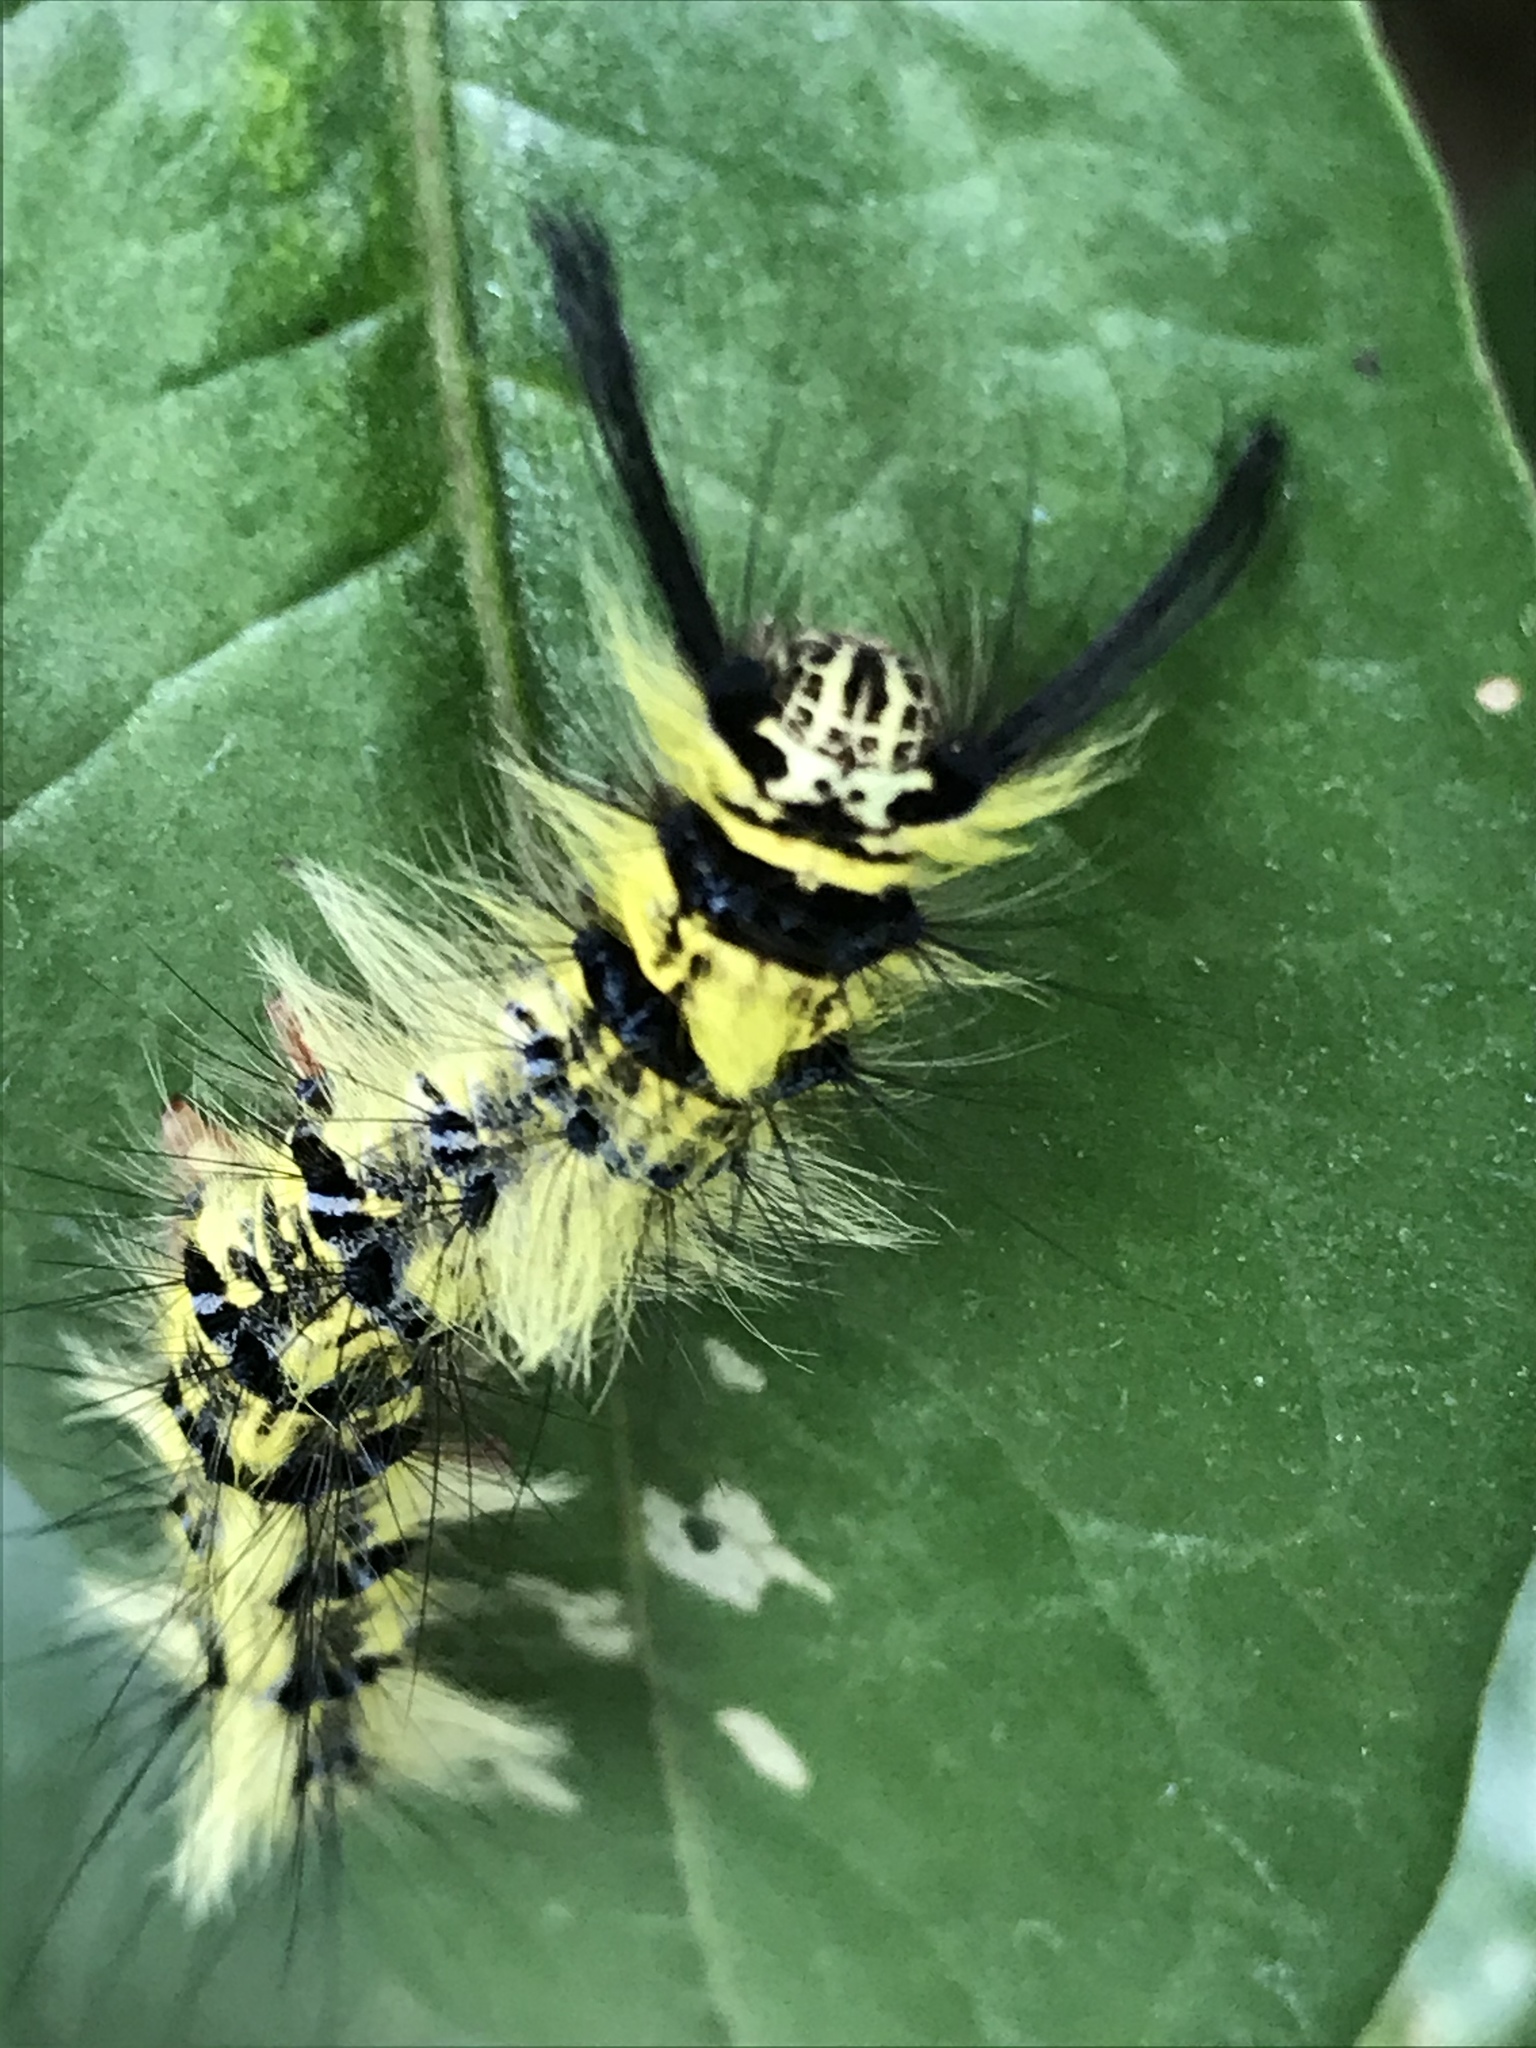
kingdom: Animalia
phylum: Arthropoda
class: Insecta
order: Lepidoptera
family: Lasiocampidae
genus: Trabala
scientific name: Trabala vishnou
